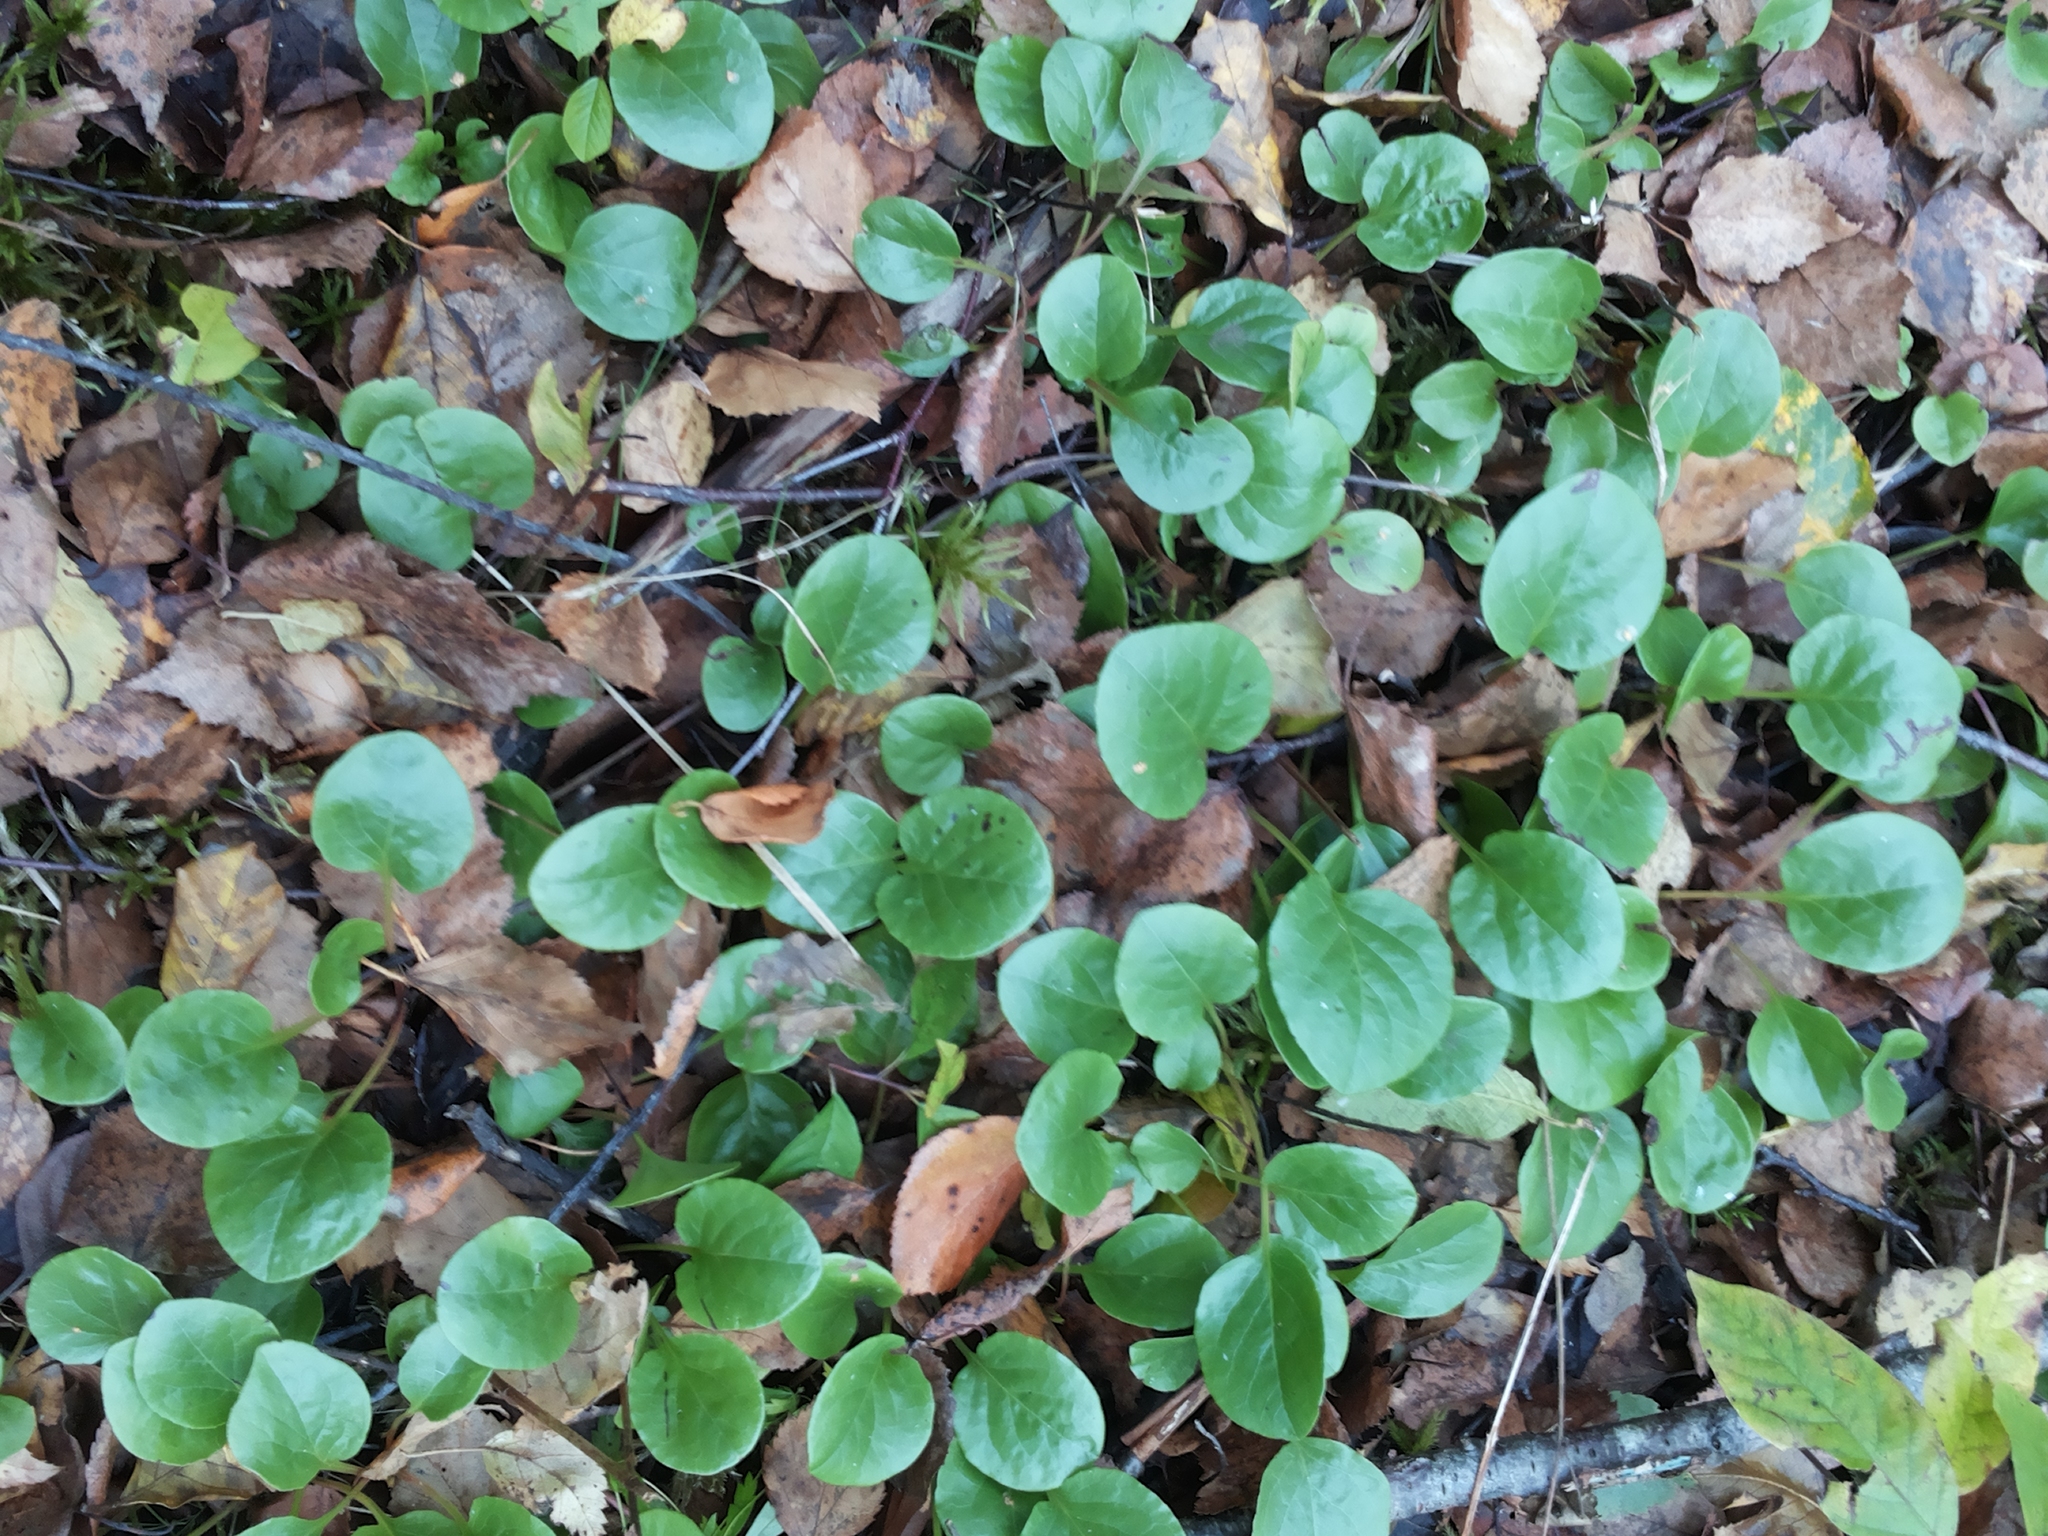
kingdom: Plantae
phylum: Tracheophyta
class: Magnoliopsida
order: Ericales
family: Ericaceae
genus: Pyrola
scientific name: Pyrola rotundifolia
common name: Round-leaved wintergreen
